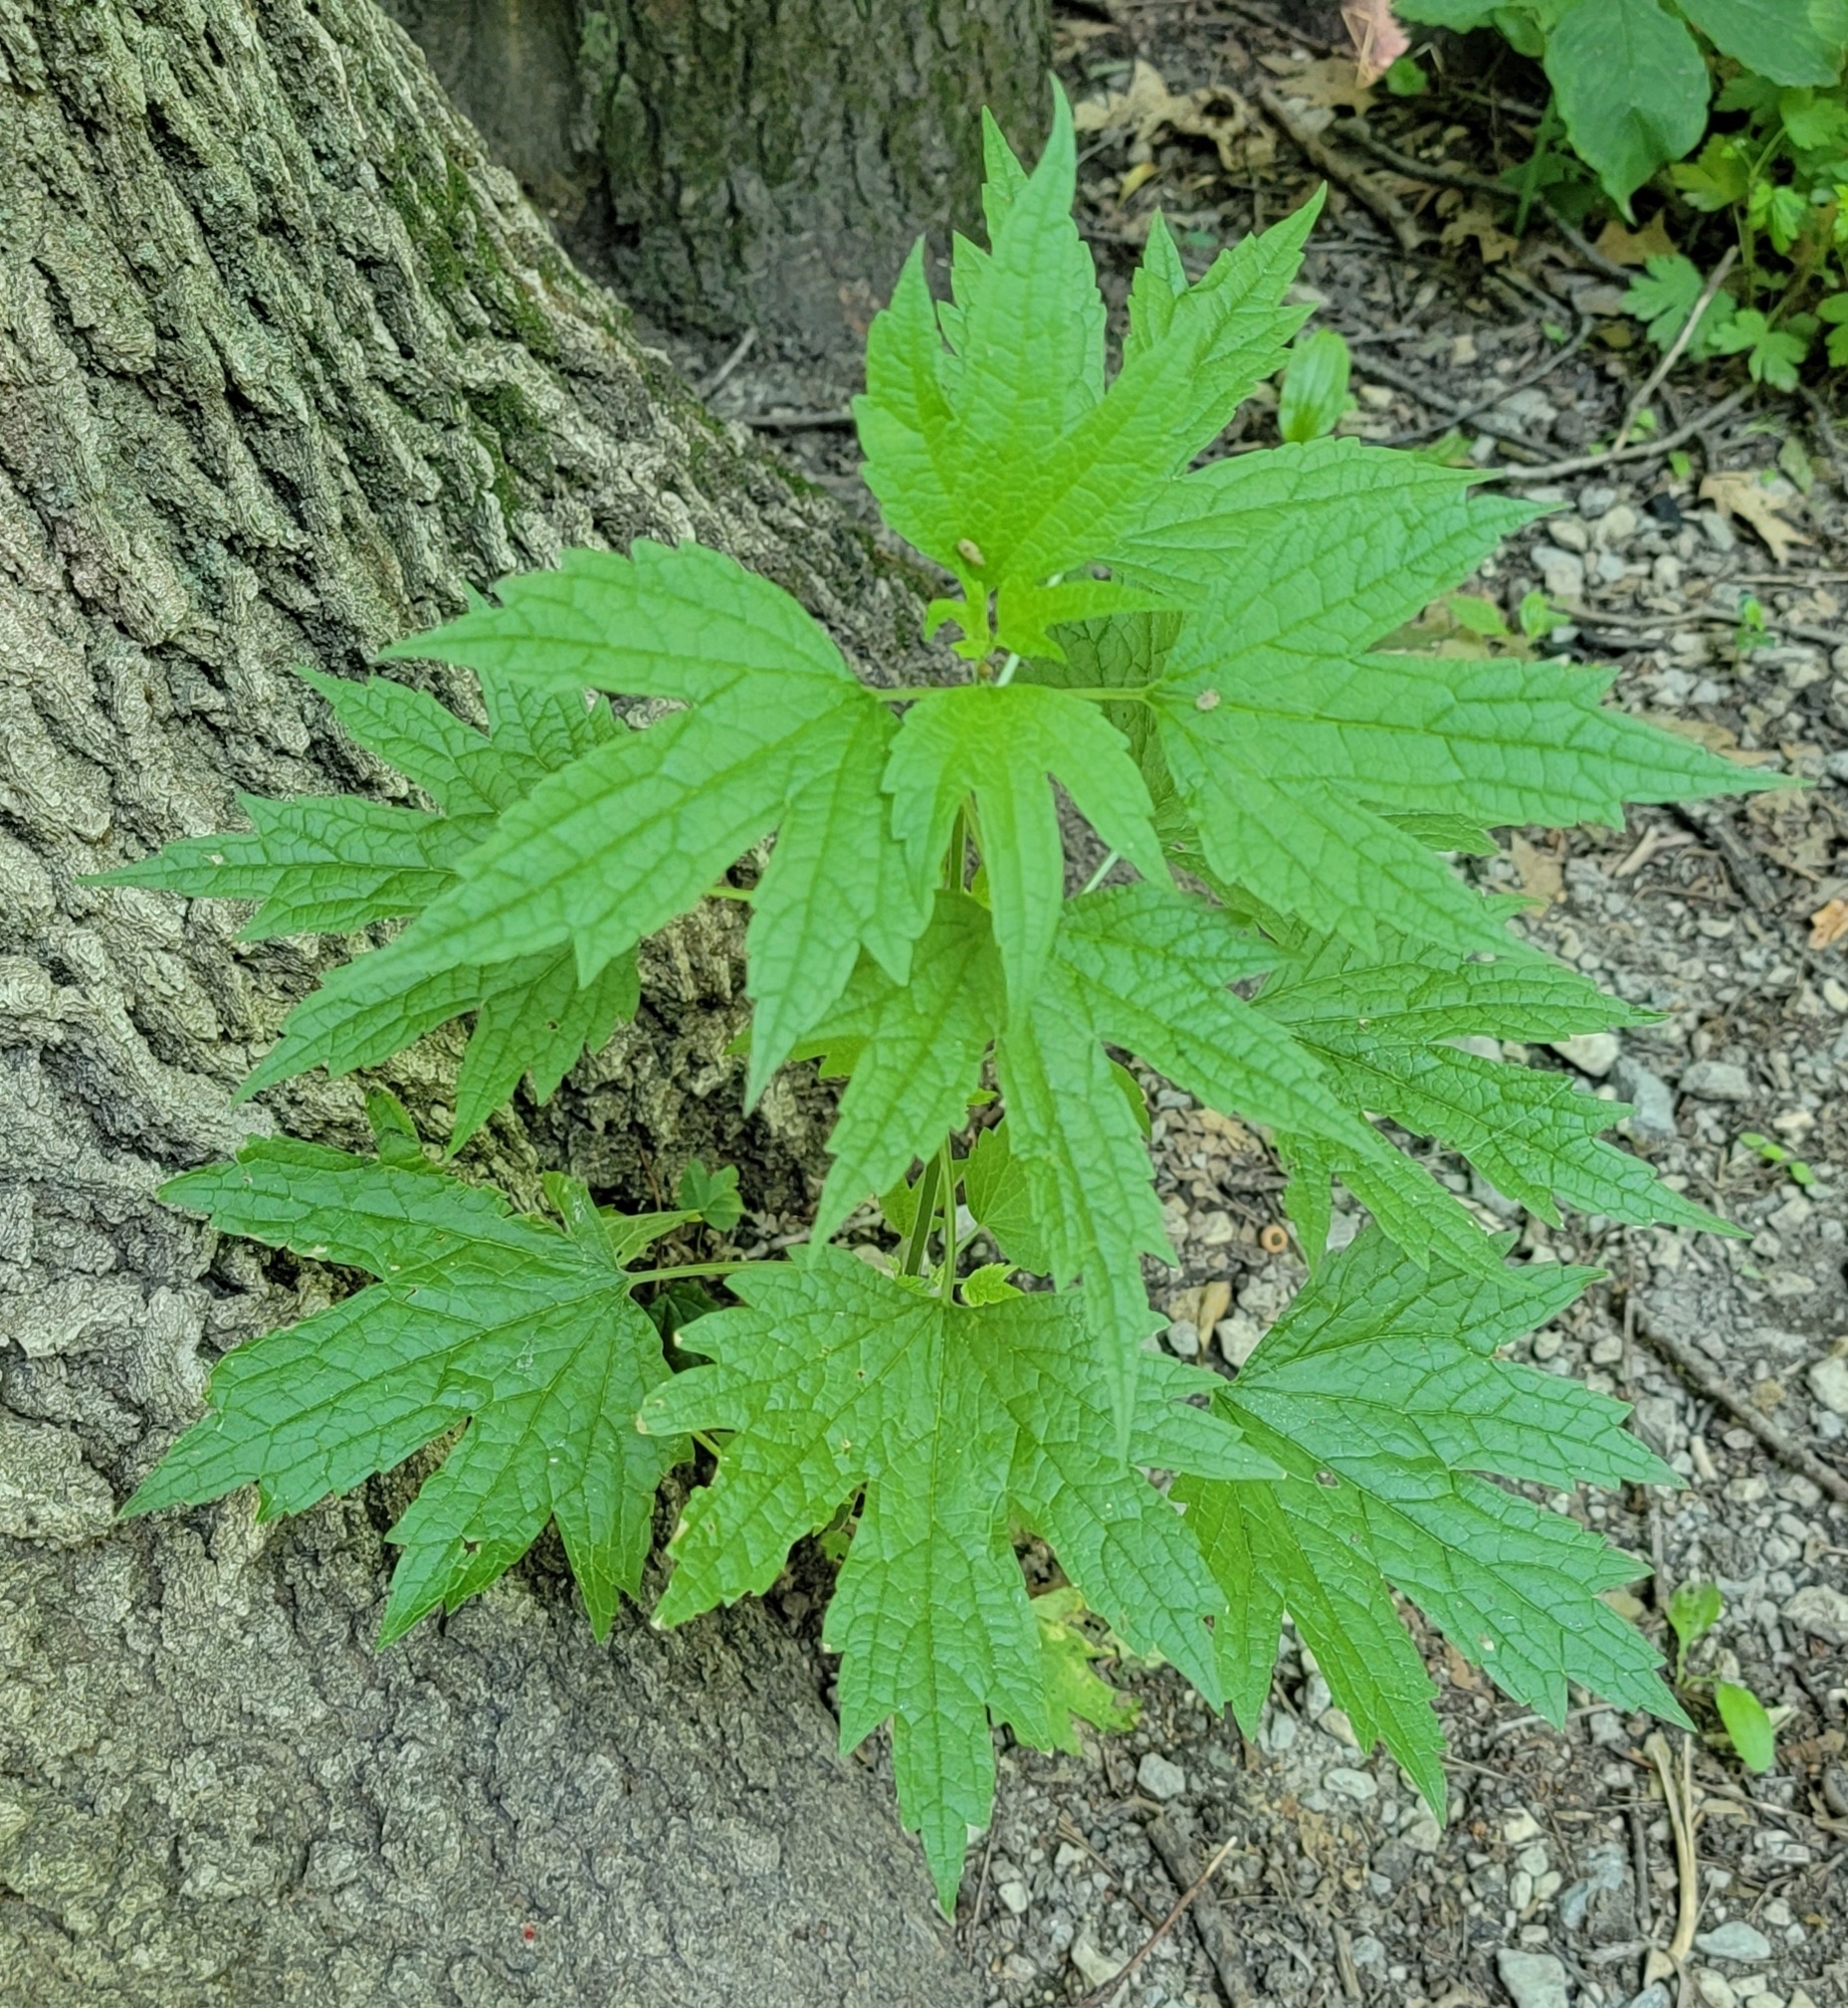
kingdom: Plantae
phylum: Tracheophyta
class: Magnoliopsida
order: Lamiales
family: Lamiaceae
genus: Leonurus
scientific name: Leonurus cardiaca
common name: Motherwort
